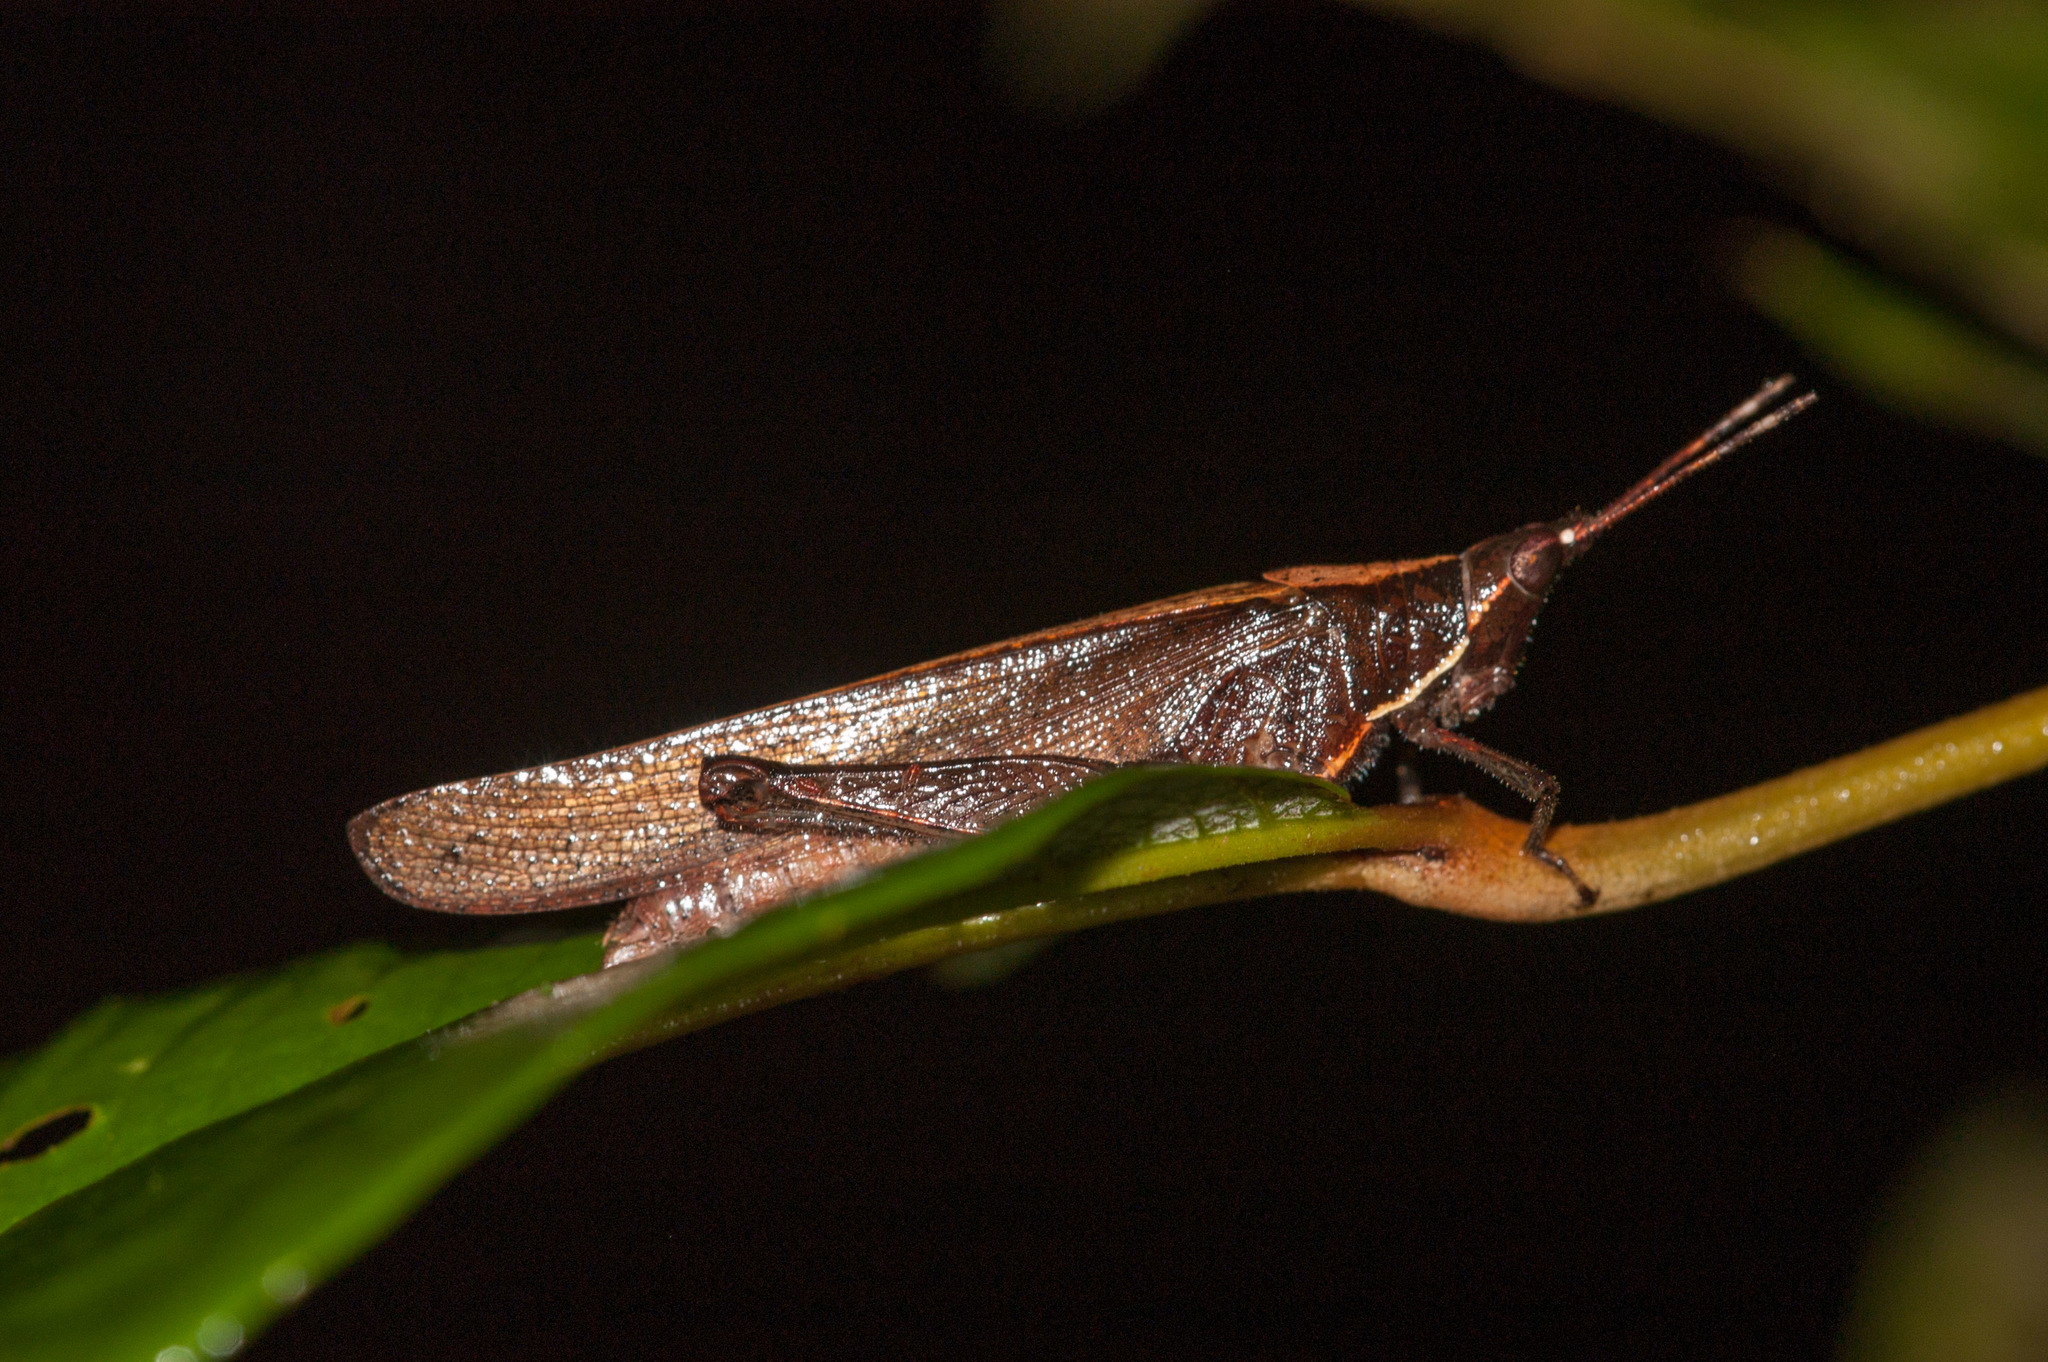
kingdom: Animalia
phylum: Arthropoda
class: Insecta
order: Orthoptera
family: Pyrgomorphidae
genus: Desmoptera
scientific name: Desmoptera truncatipennis
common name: Large forest pyrgomorph
